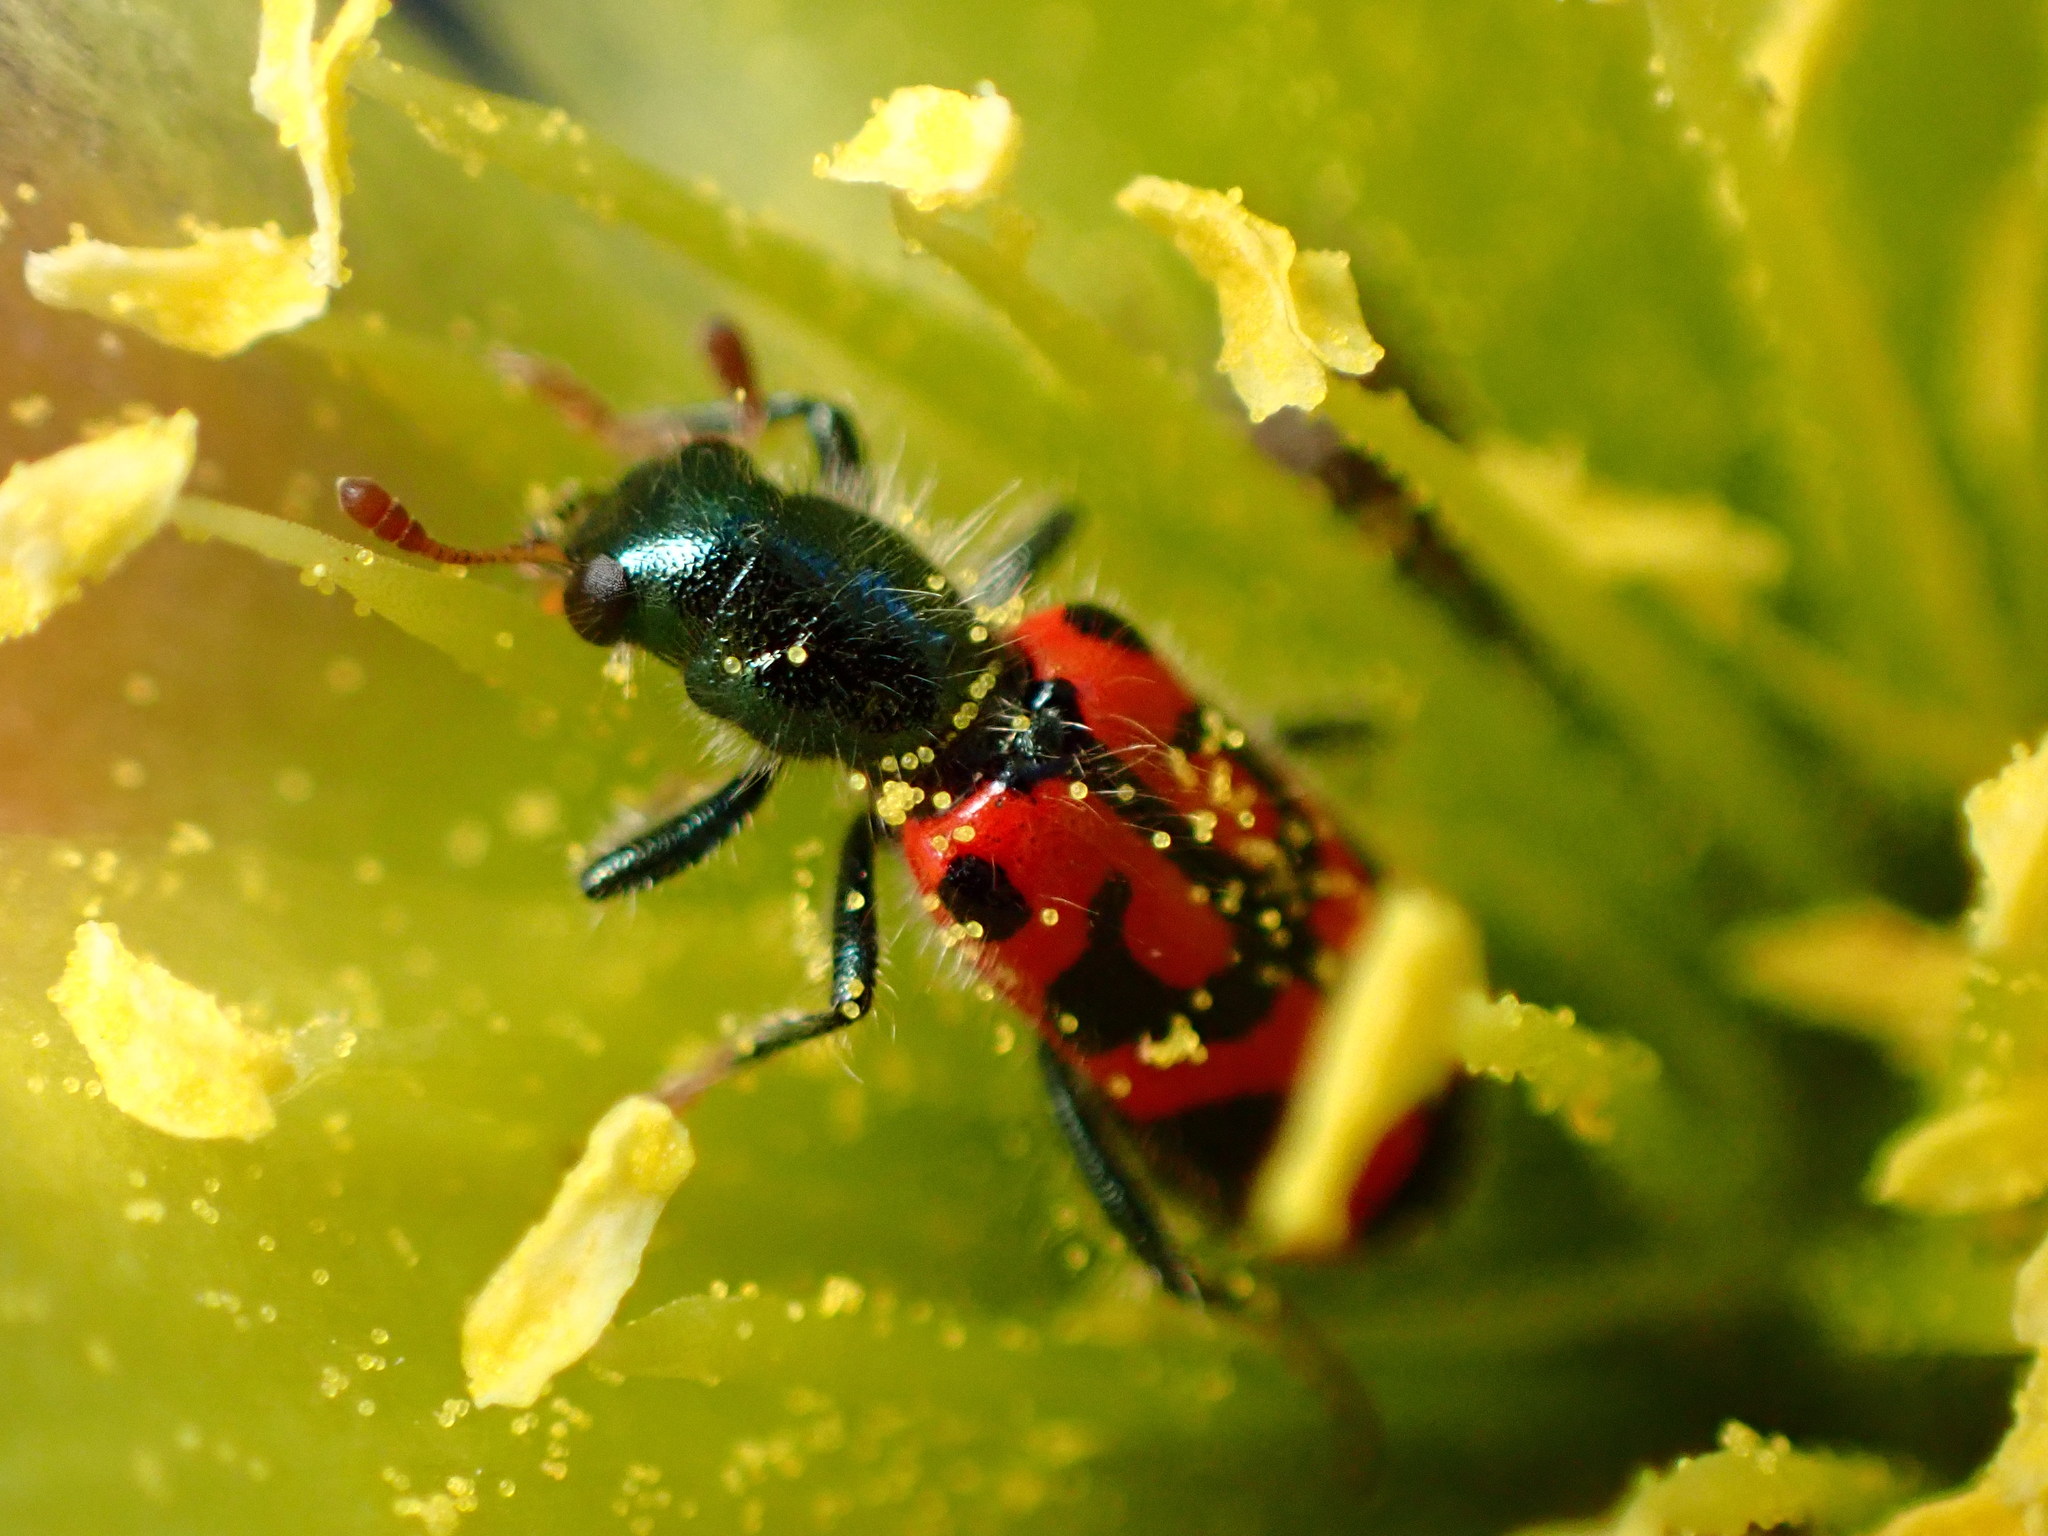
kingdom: Animalia
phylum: Arthropoda
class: Insecta
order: Coleoptera
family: Cleridae
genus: Trichodes
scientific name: Trichodes ornatus
